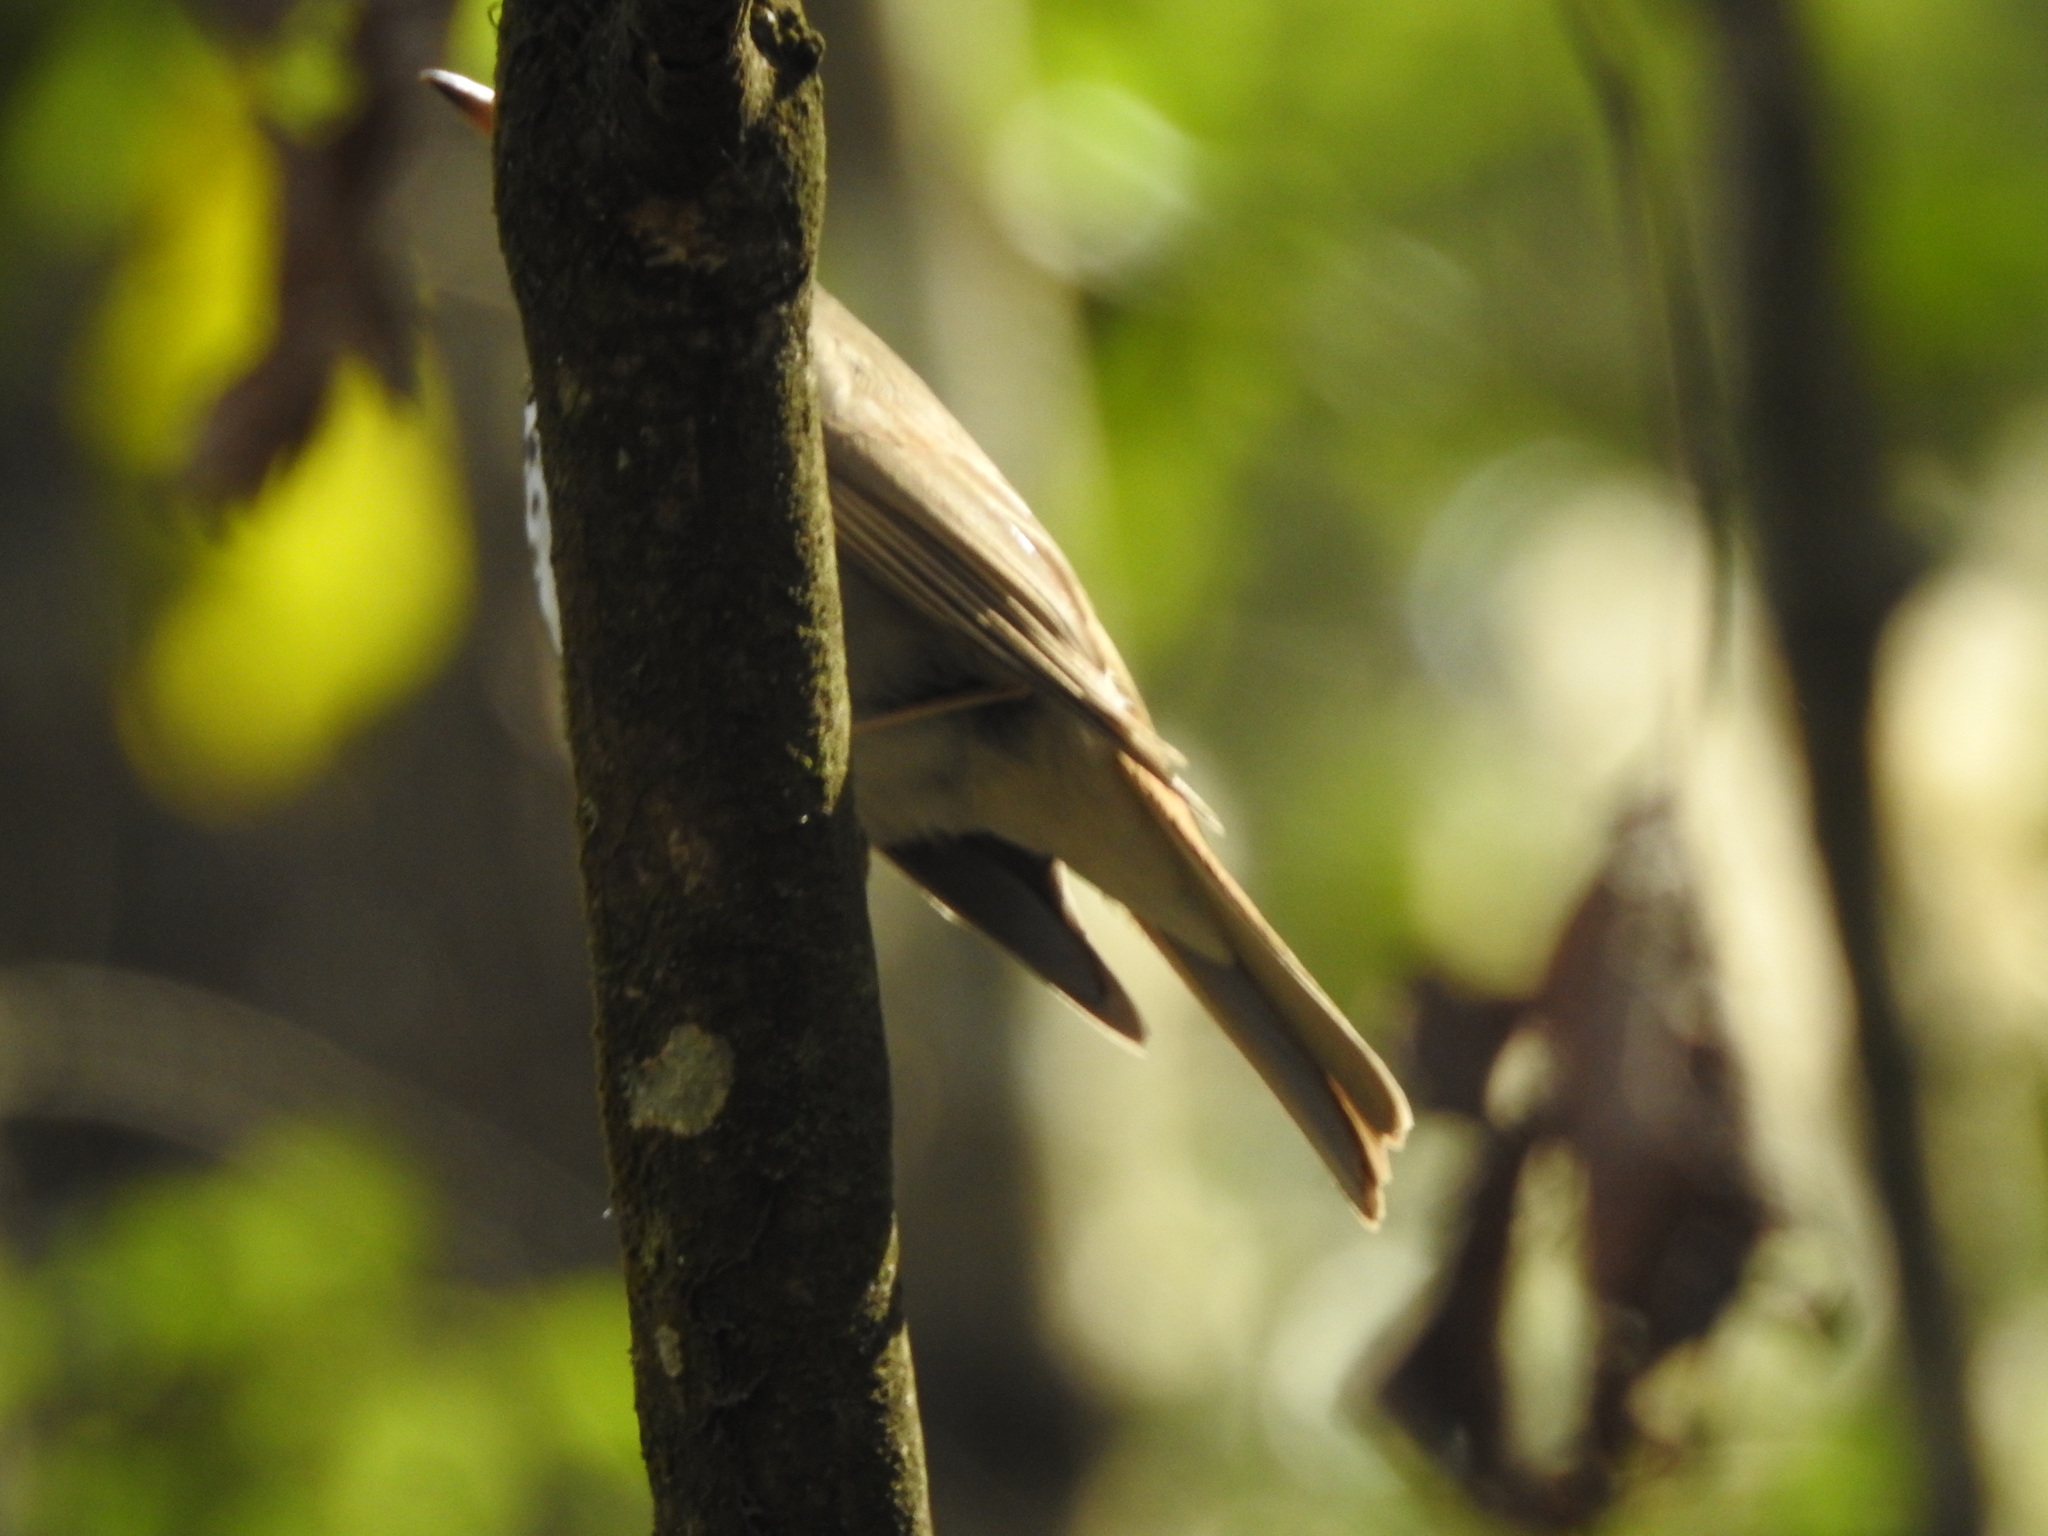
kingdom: Animalia
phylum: Chordata
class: Aves
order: Passeriformes
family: Turdidae
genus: Catharus
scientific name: Catharus guttatus
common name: Hermit thrush
